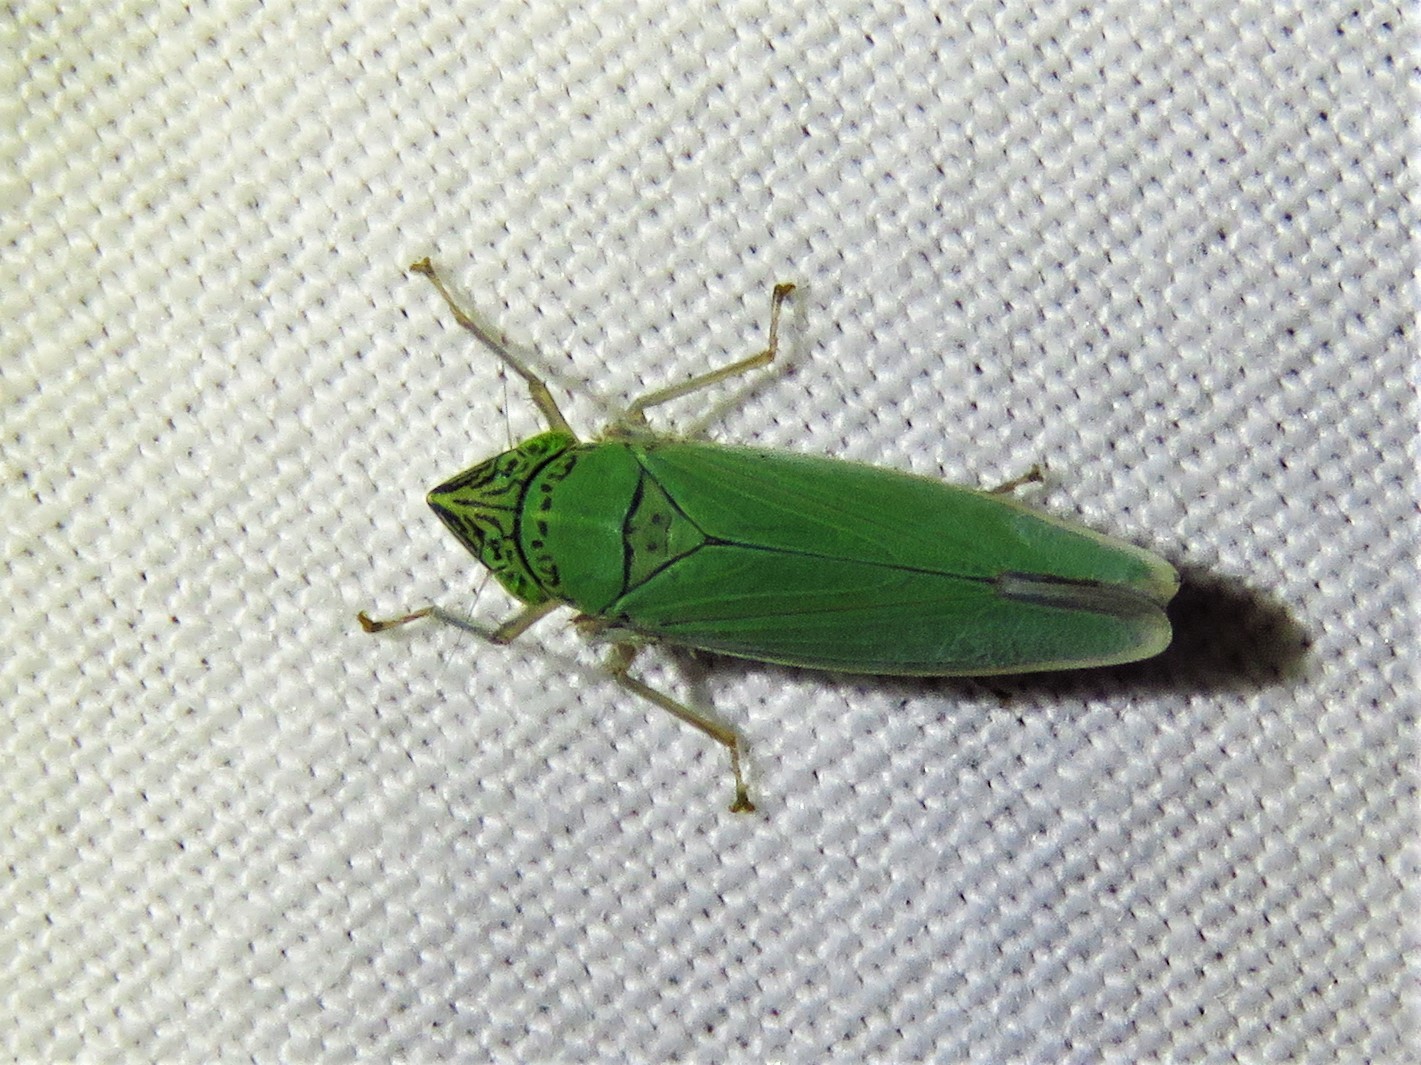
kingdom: Animalia
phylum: Arthropoda
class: Insecta
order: Hemiptera
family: Cicadellidae
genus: Draeculacephala
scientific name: Draeculacephala inscripta
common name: Leafhopper
